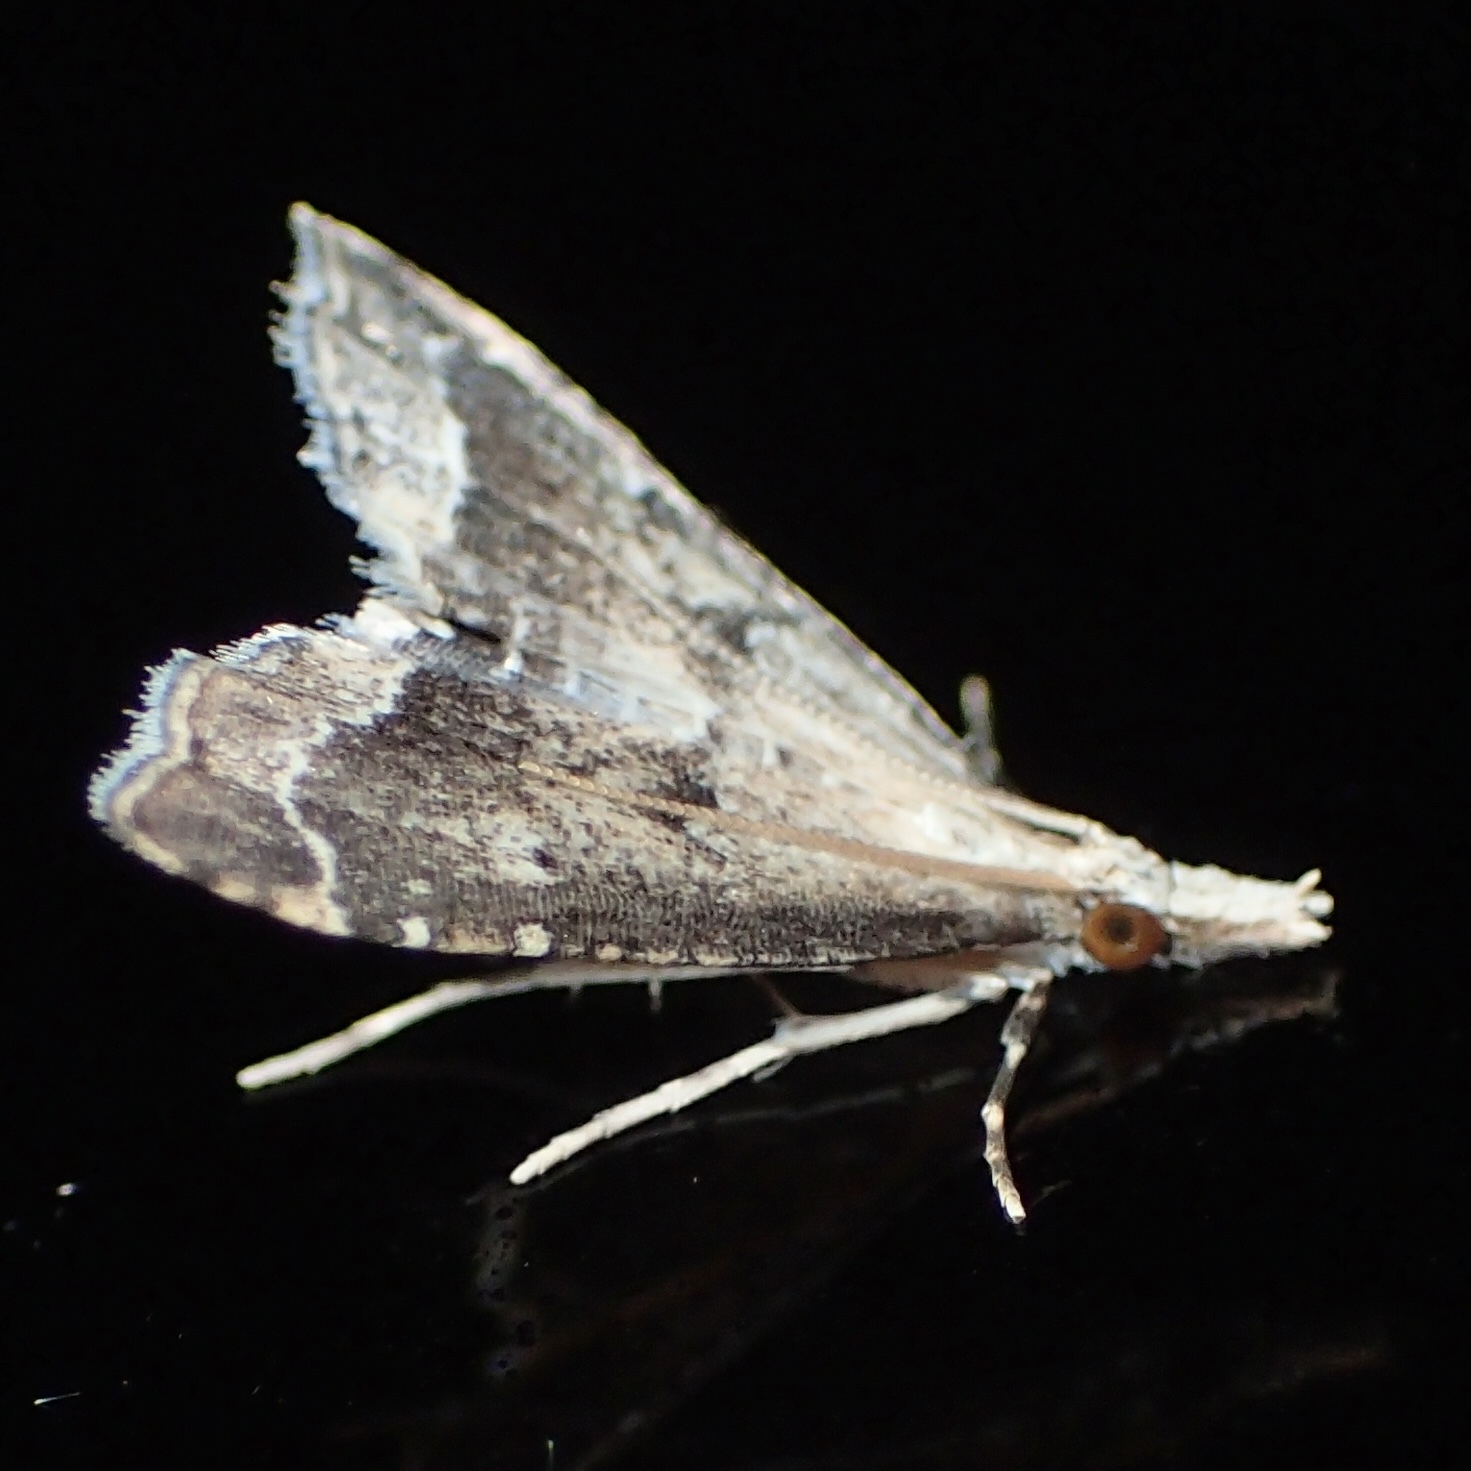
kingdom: Animalia
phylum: Arthropoda
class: Insecta
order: Lepidoptera
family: Crambidae
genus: Diplopseustis
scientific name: Diplopseustis perieresalis
